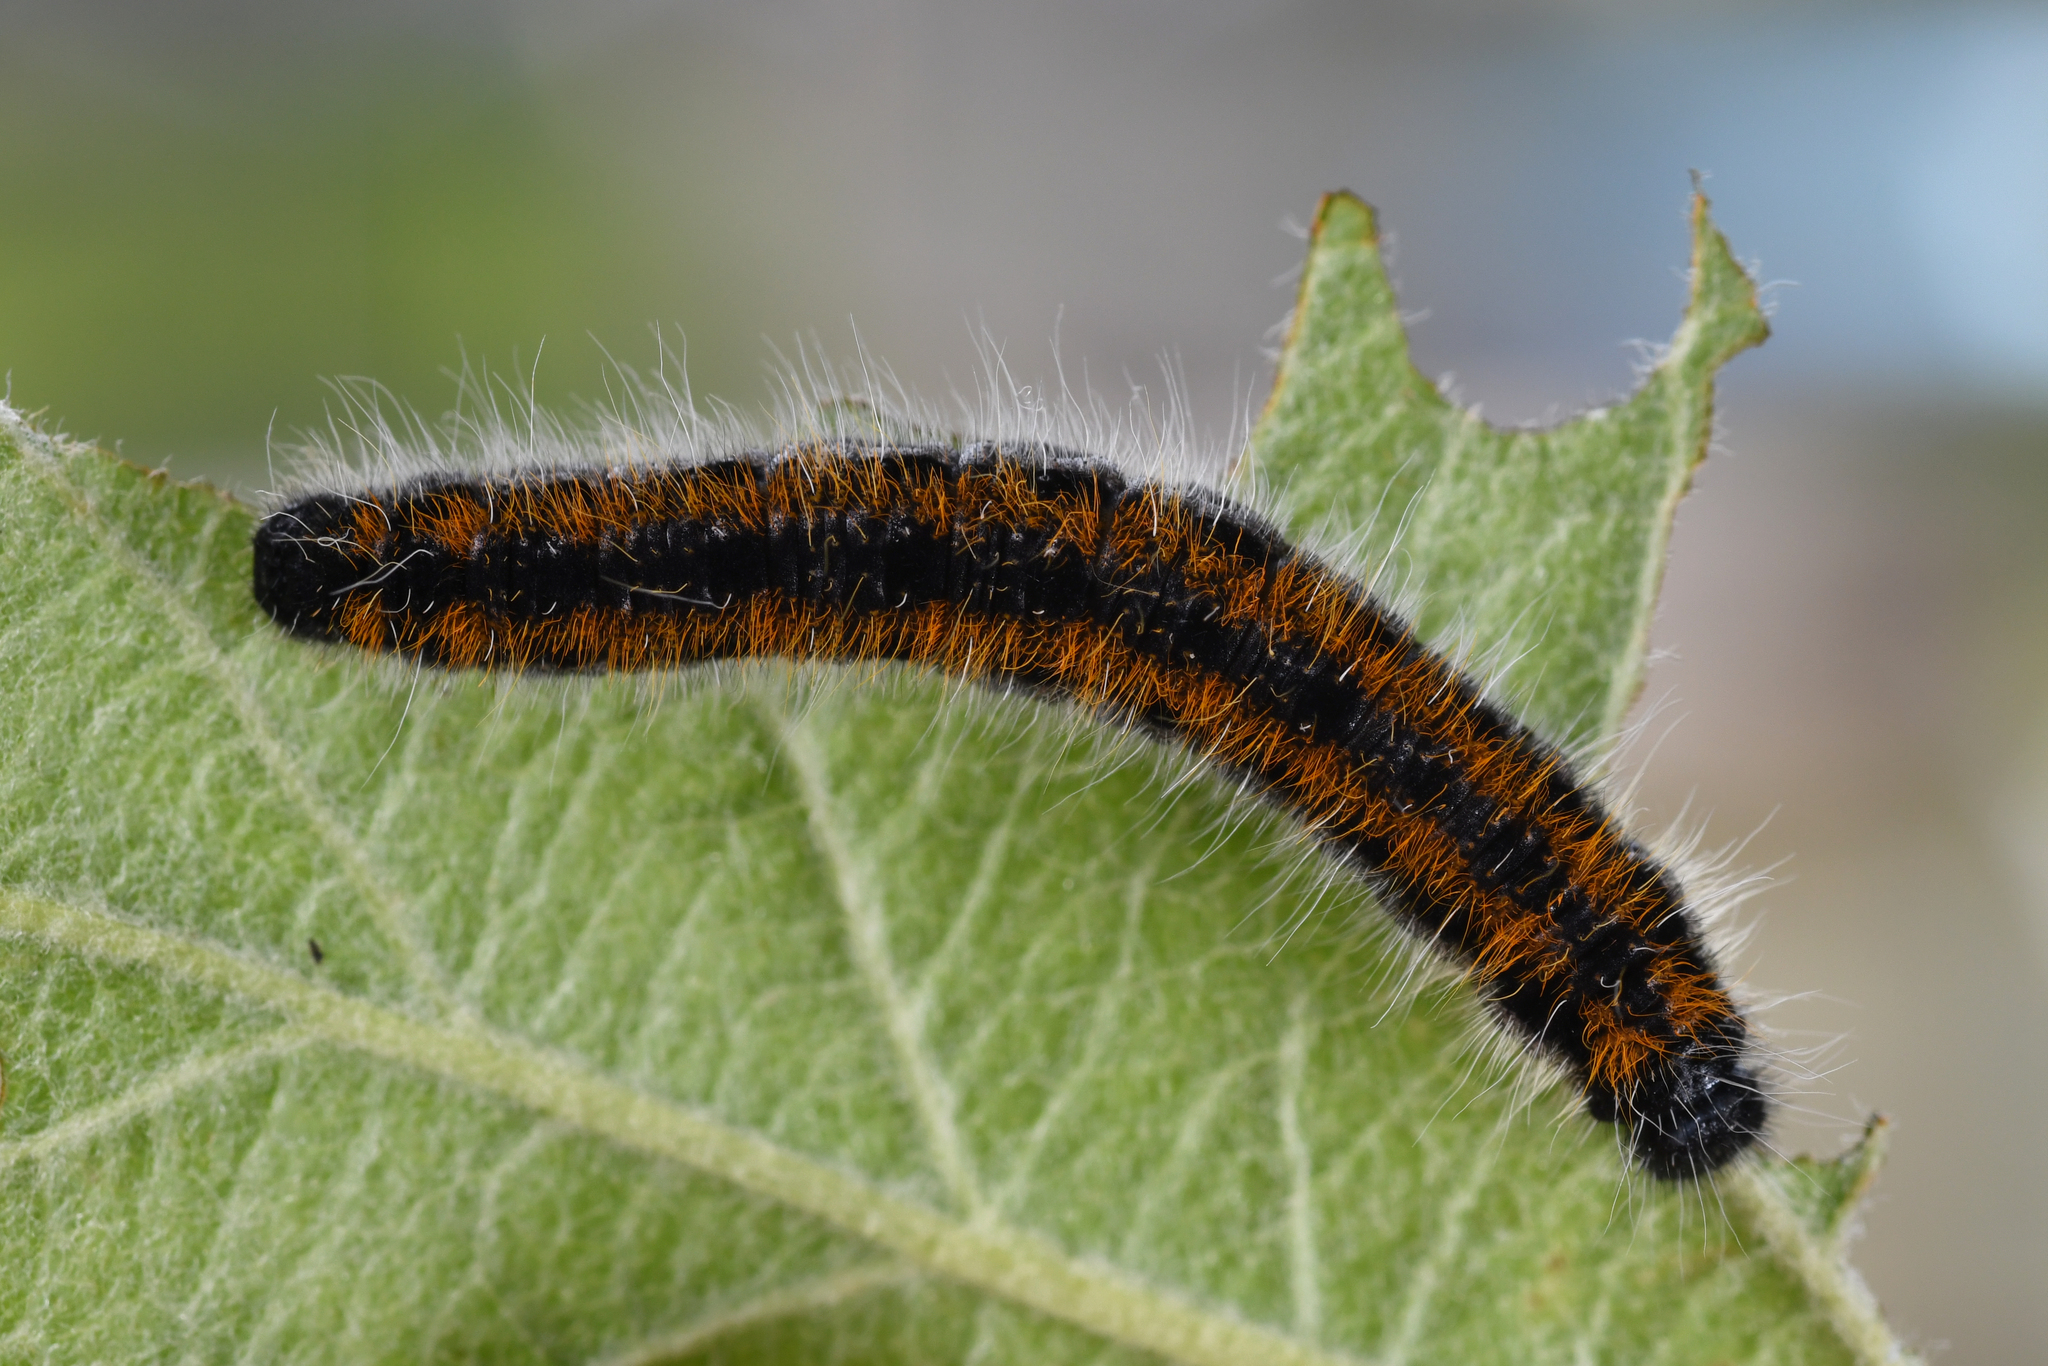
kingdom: Animalia
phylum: Arthropoda
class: Insecta
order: Lepidoptera
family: Pieridae
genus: Aporia
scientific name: Aporia crataegi
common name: Black-veined white
